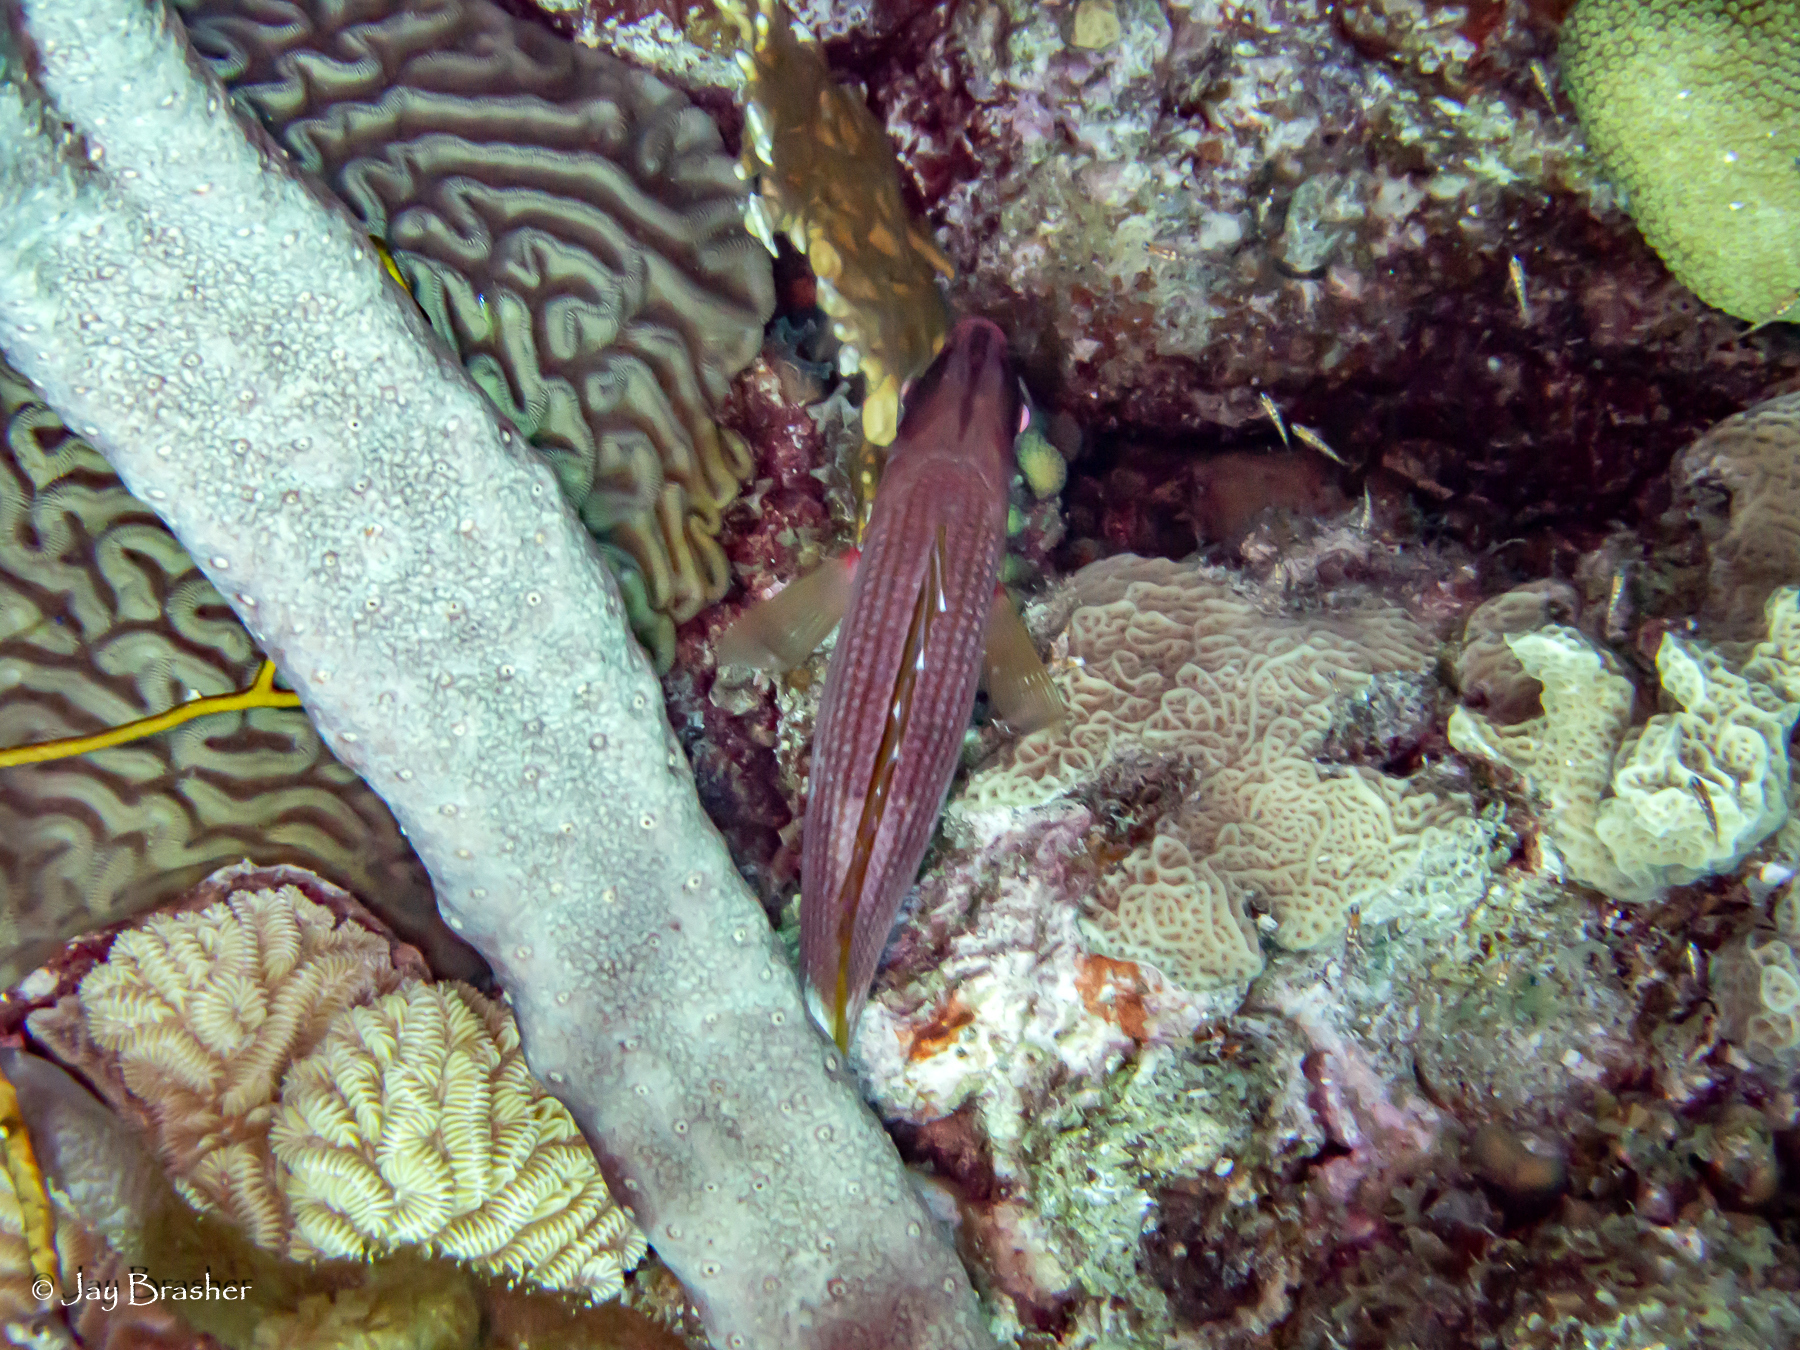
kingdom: Animalia
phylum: Chordata
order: Beryciformes
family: Holocentridae
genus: Holocentrus
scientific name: Holocentrus rufus
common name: Longspine squirrelfish
